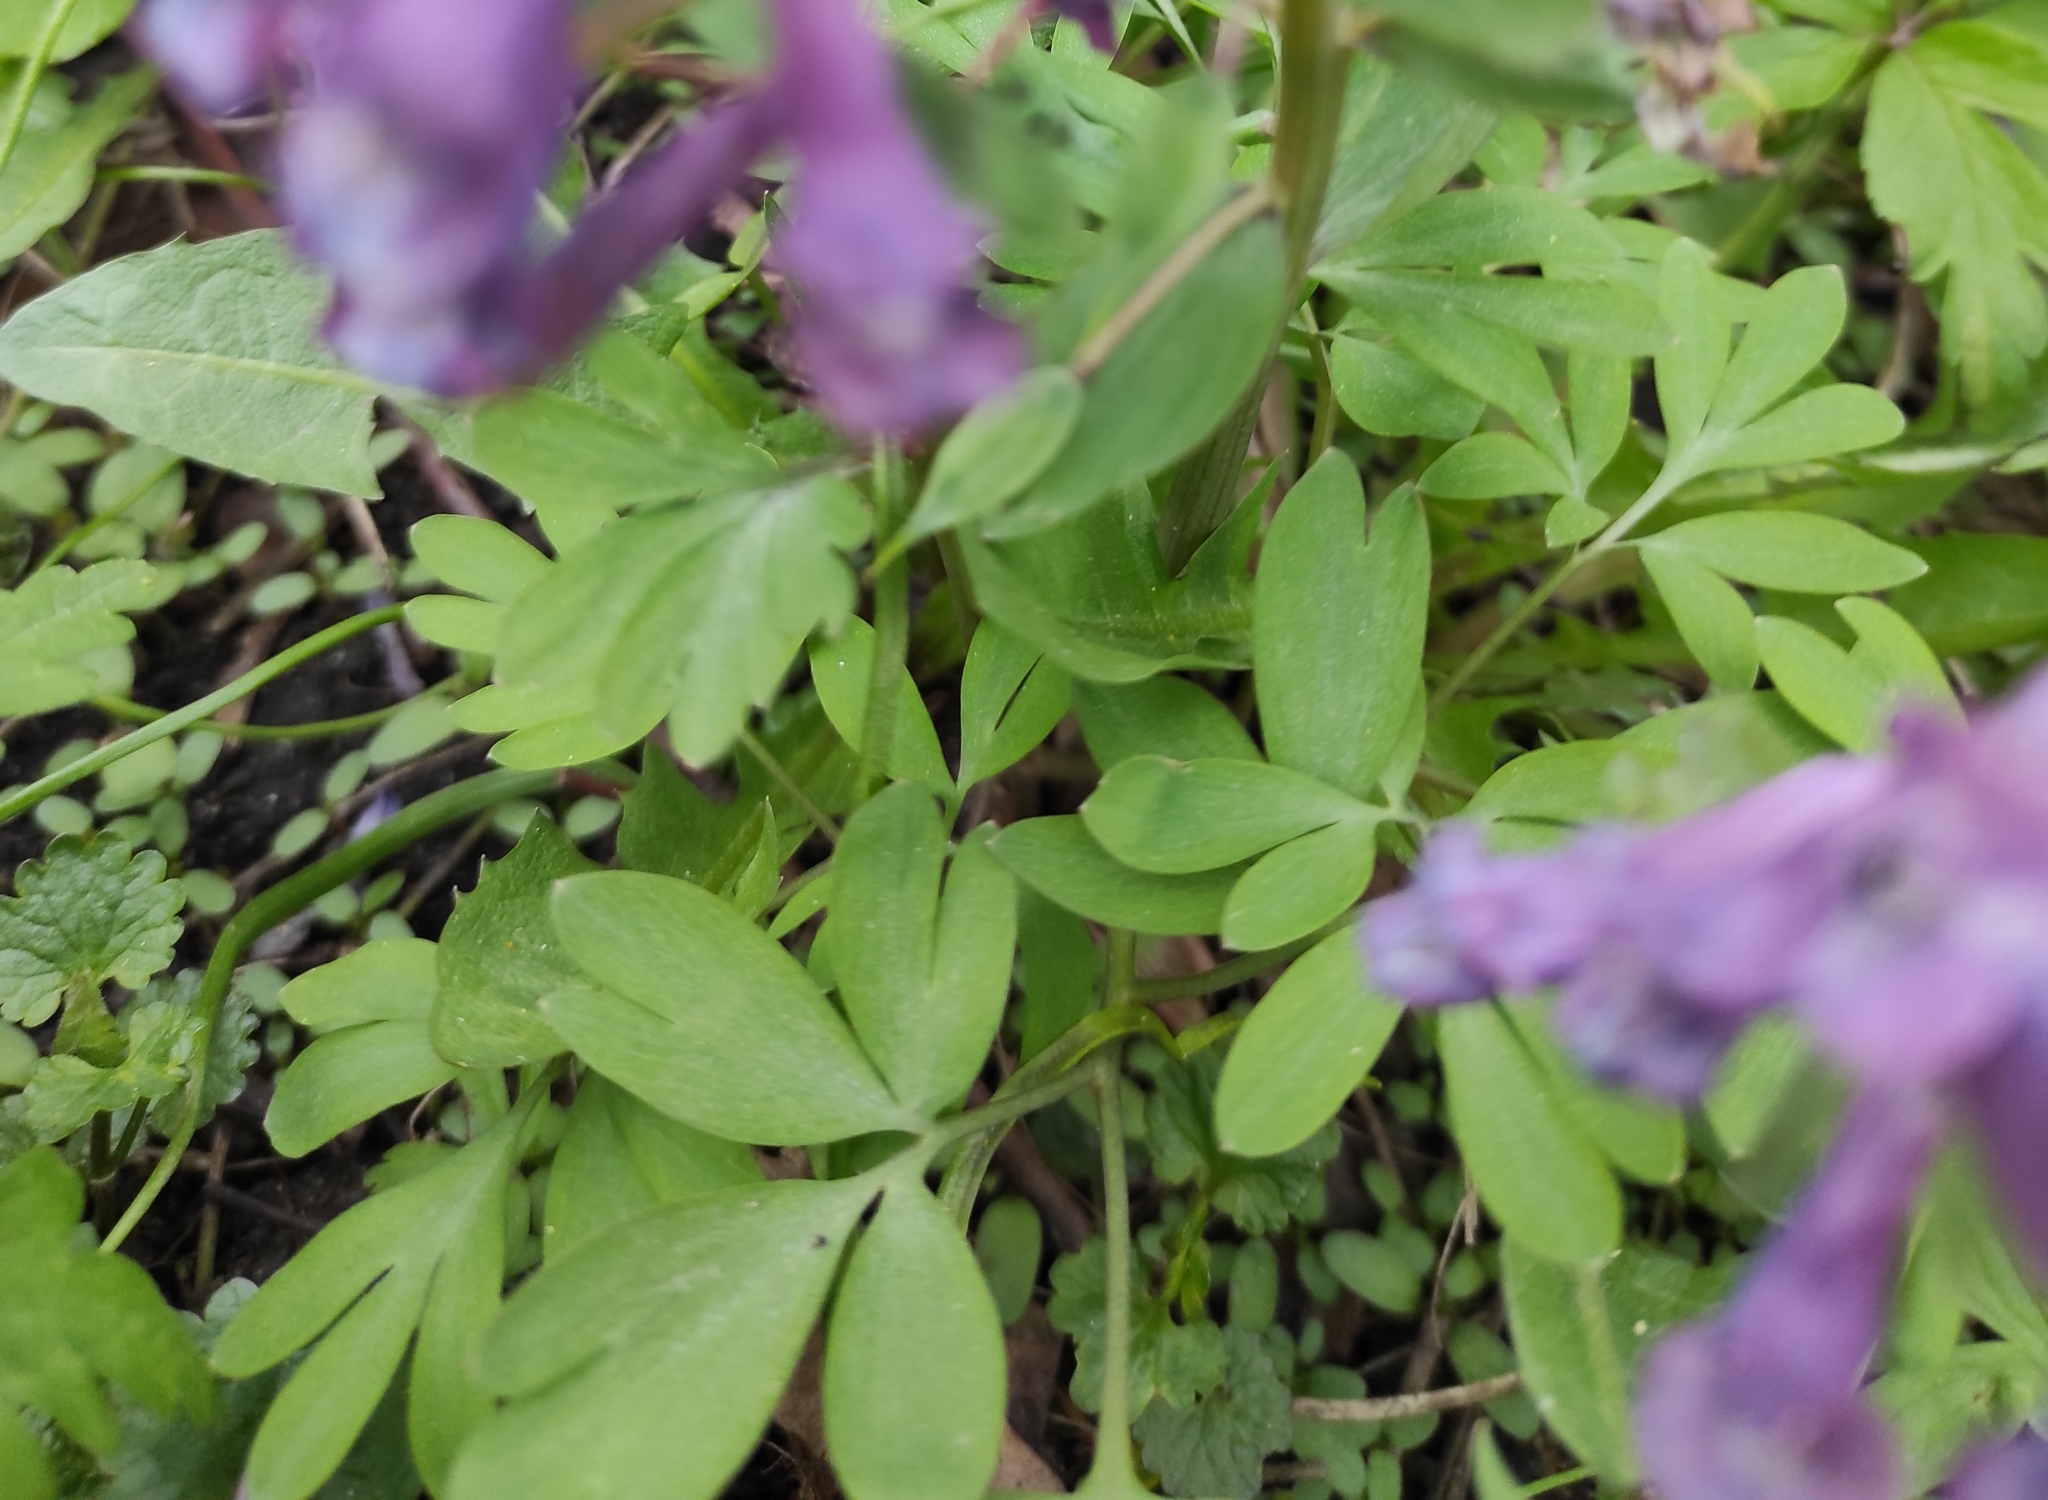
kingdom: Plantae
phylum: Tracheophyta
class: Magnoliopsida
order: Ranunculales
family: Papaveraceae
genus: Corydalis
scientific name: Corydalis solida
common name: Bird-in-a-bush
